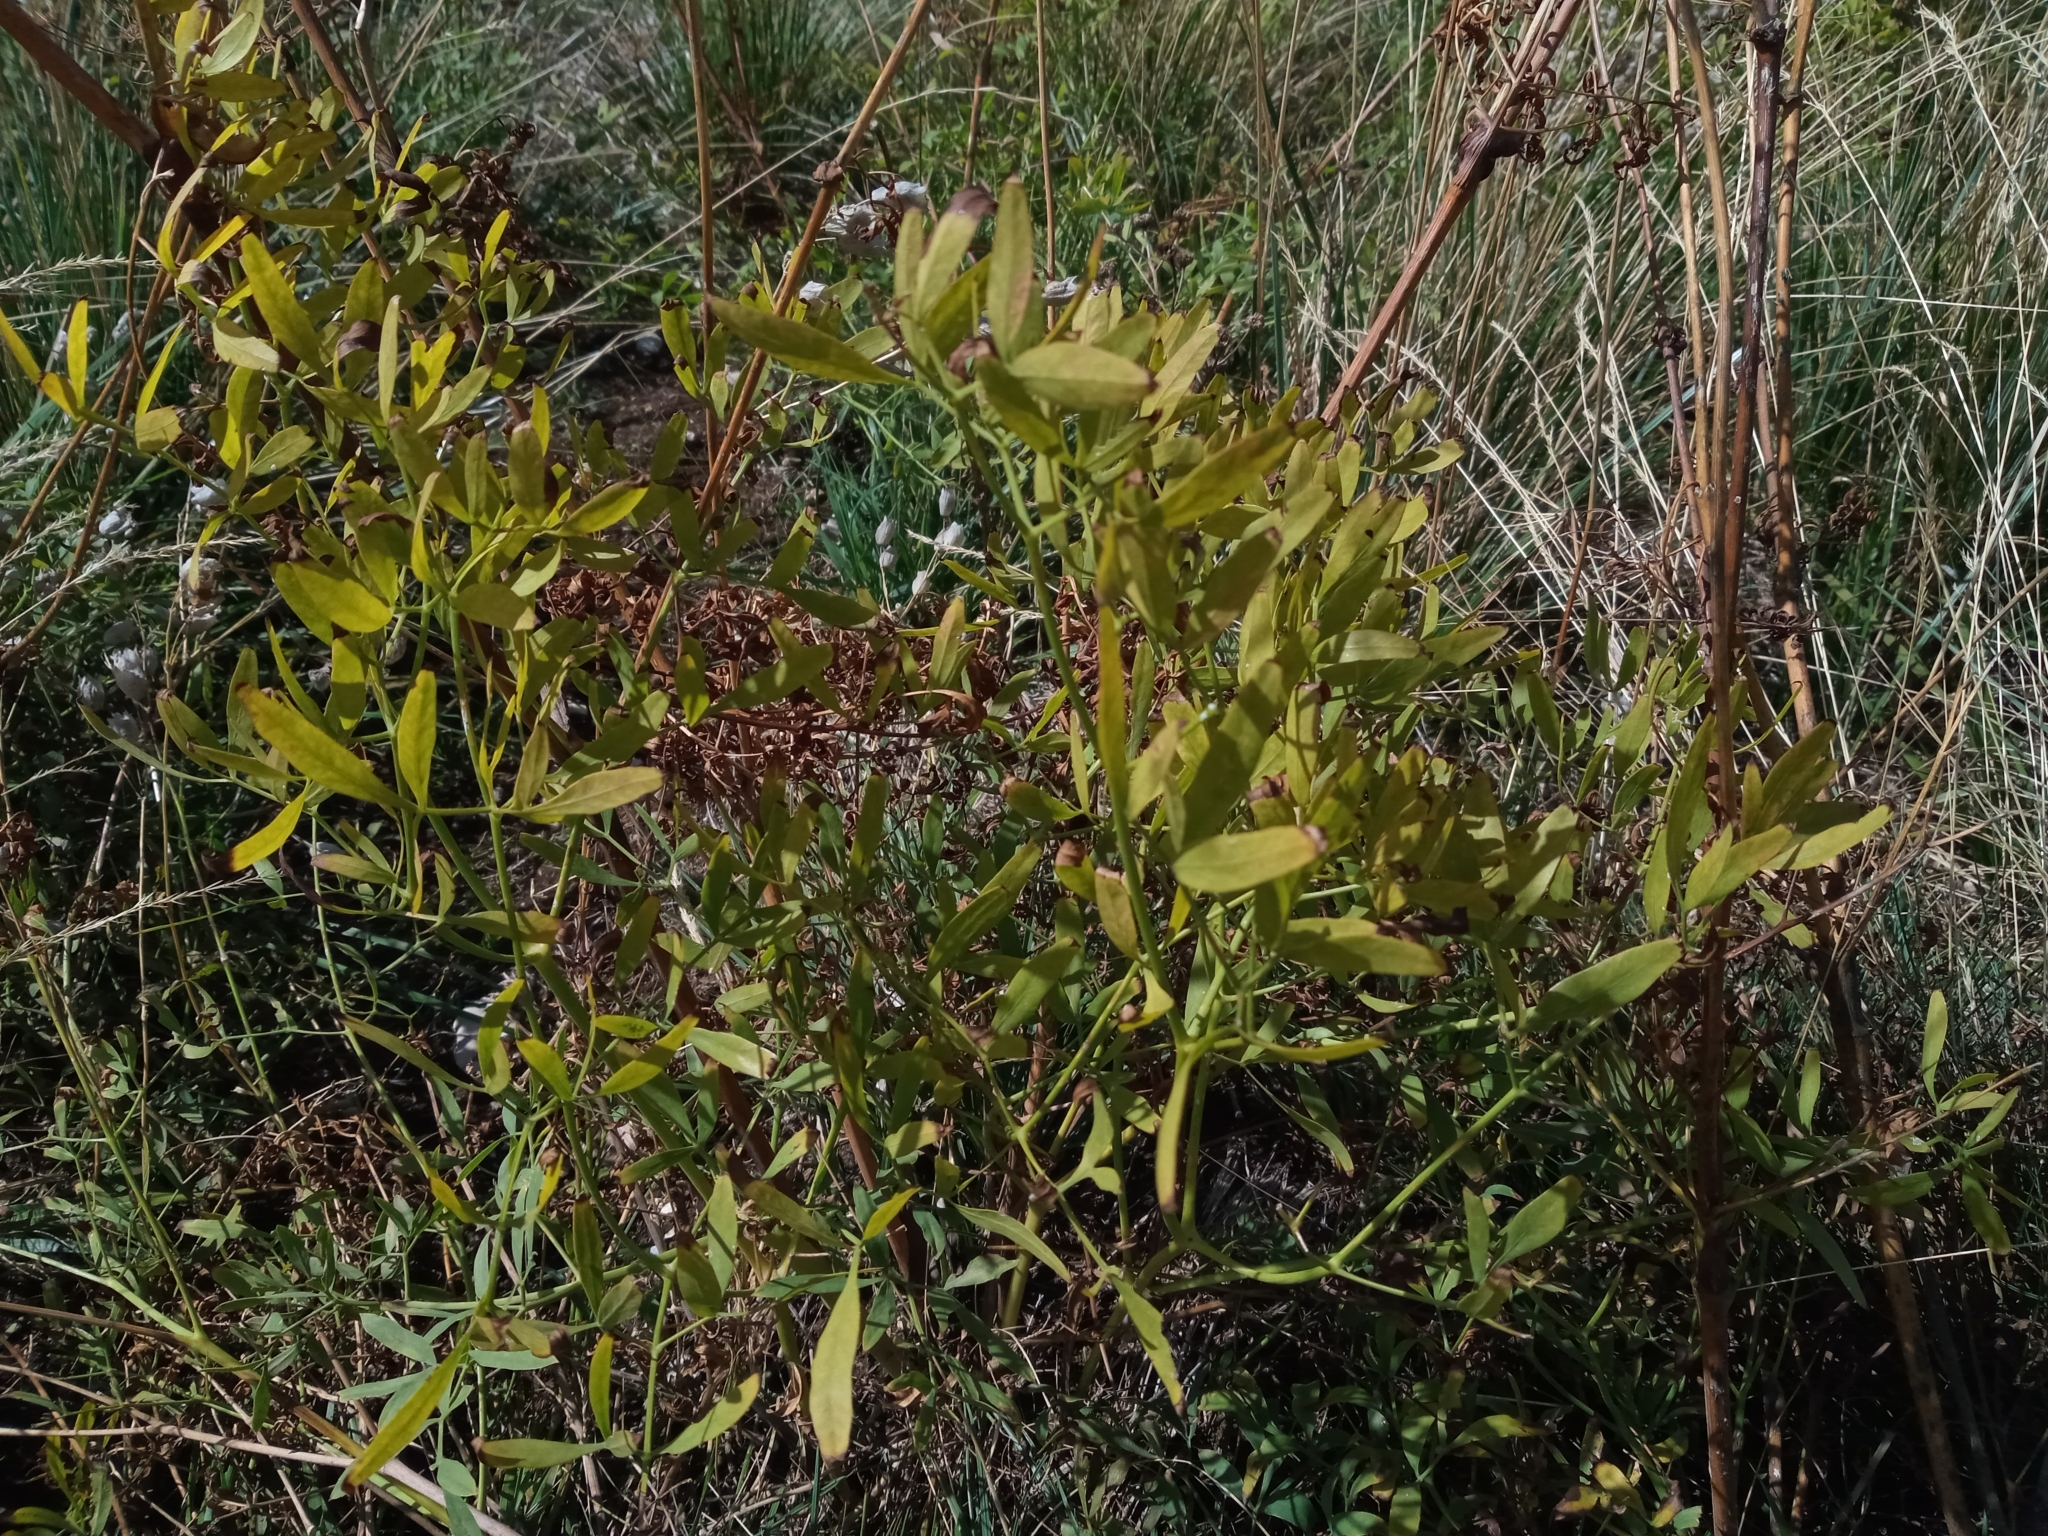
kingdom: Plantae
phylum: Tracheophyta
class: Magnoliopsida
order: Apiales
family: Apiaceae
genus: Siler
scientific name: Siler montanum
